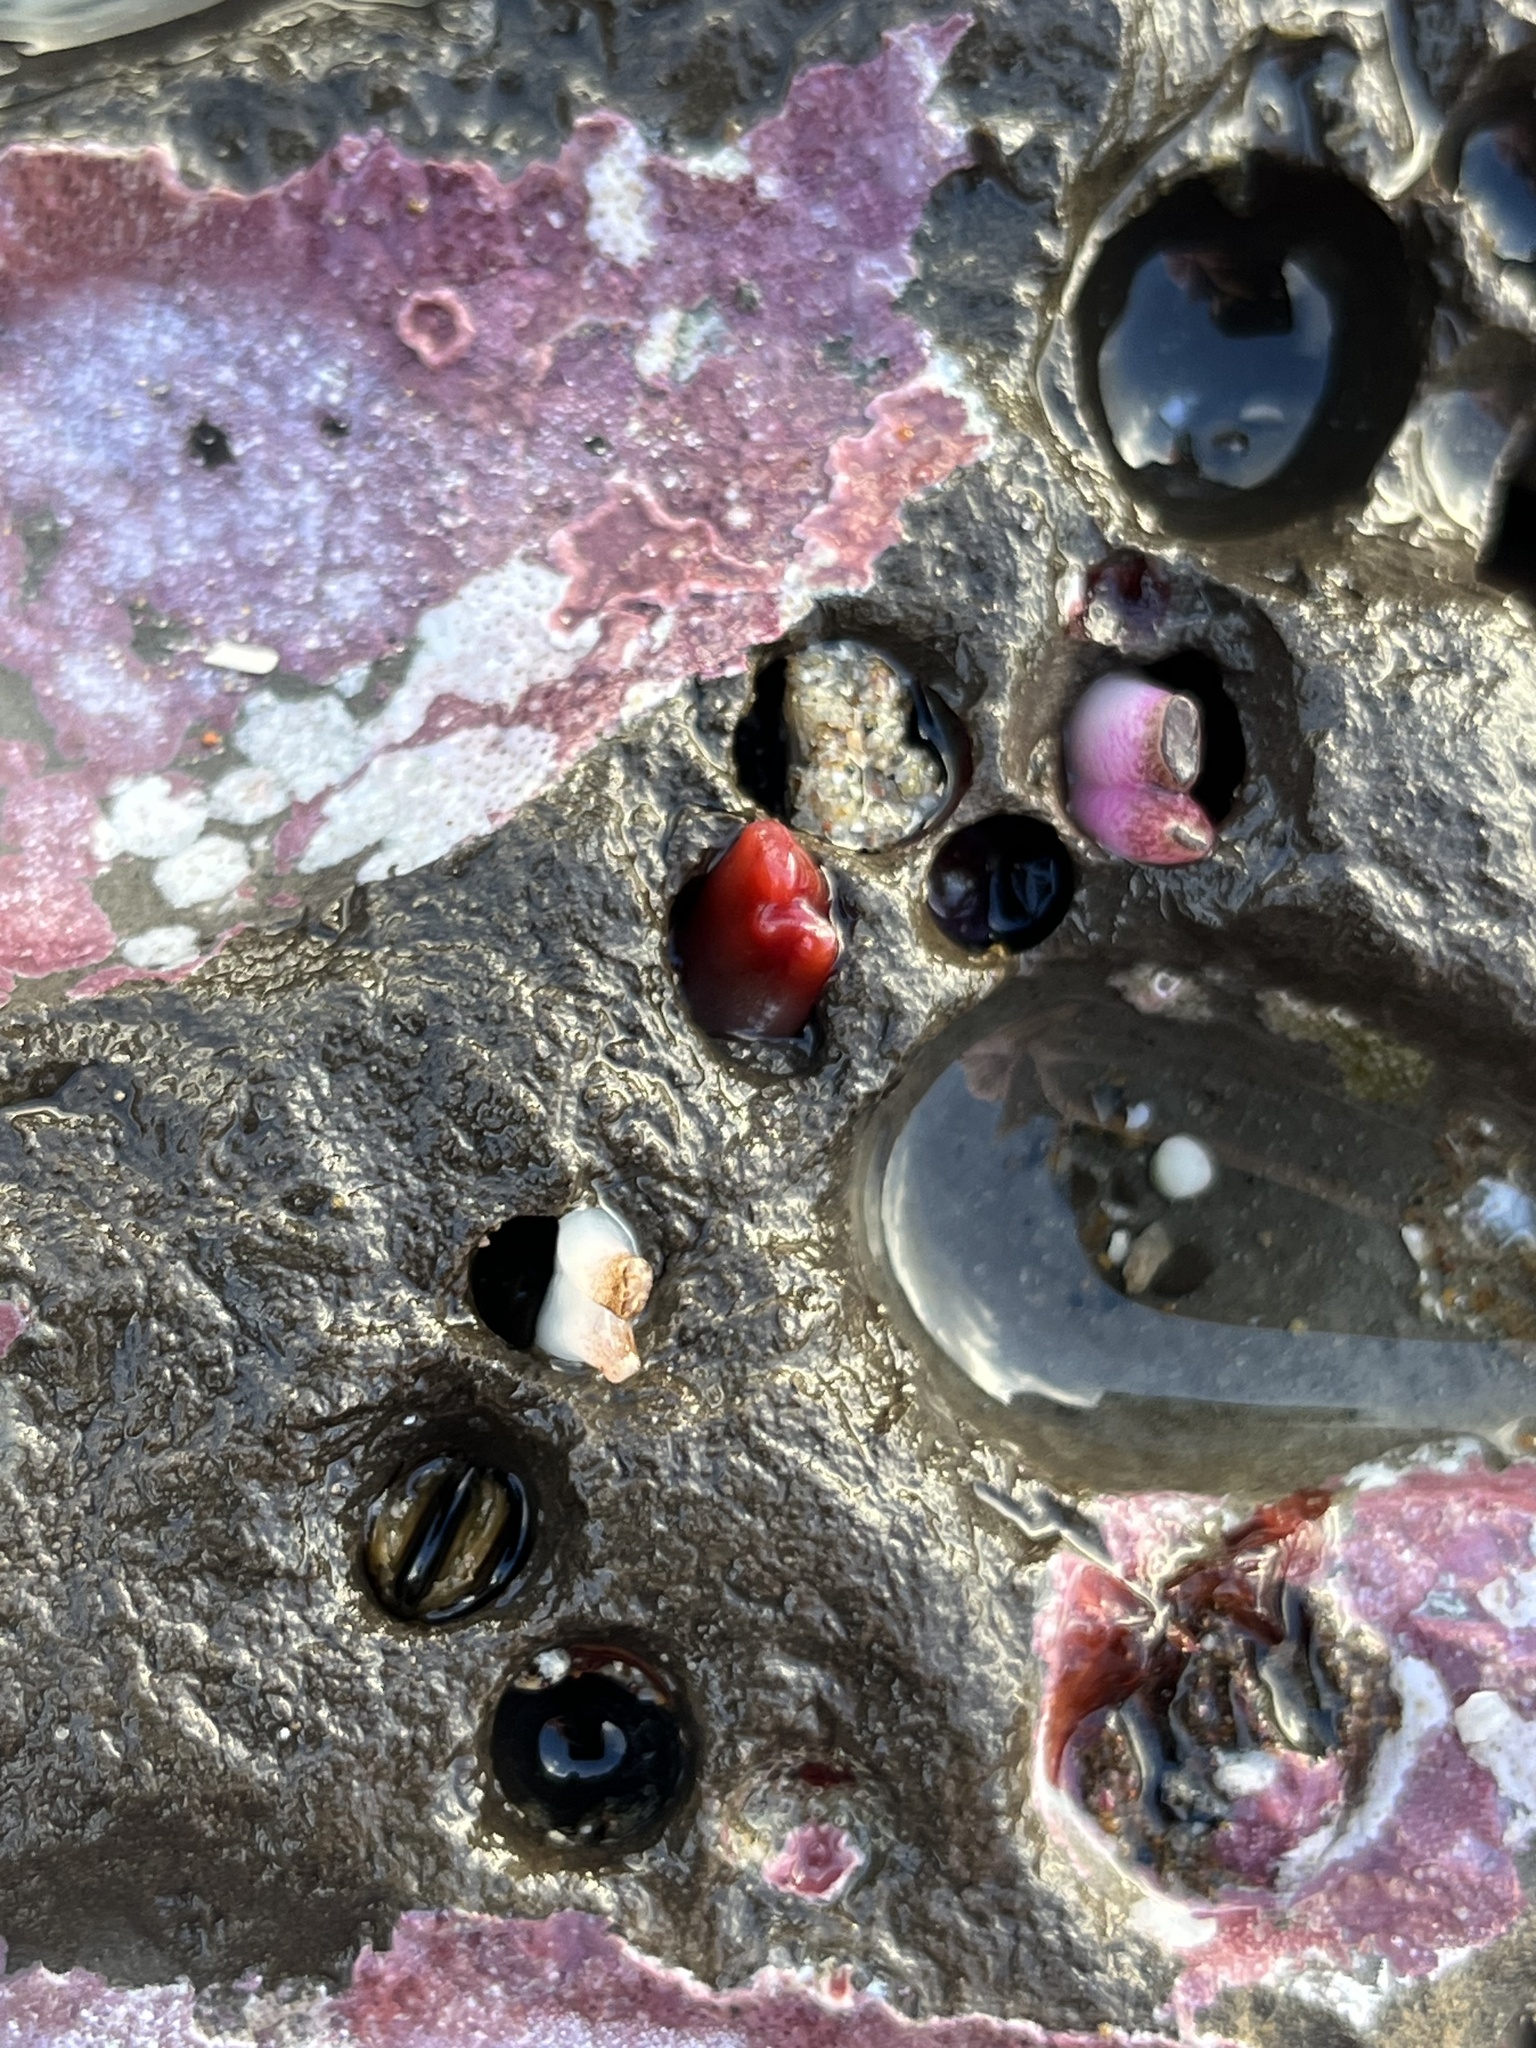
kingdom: Animalia
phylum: Mollusca
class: Bivalvia
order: Adapedonta
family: Hiatellidae
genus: Hiatella
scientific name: Hiatella arctica
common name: Arctic hiatella
